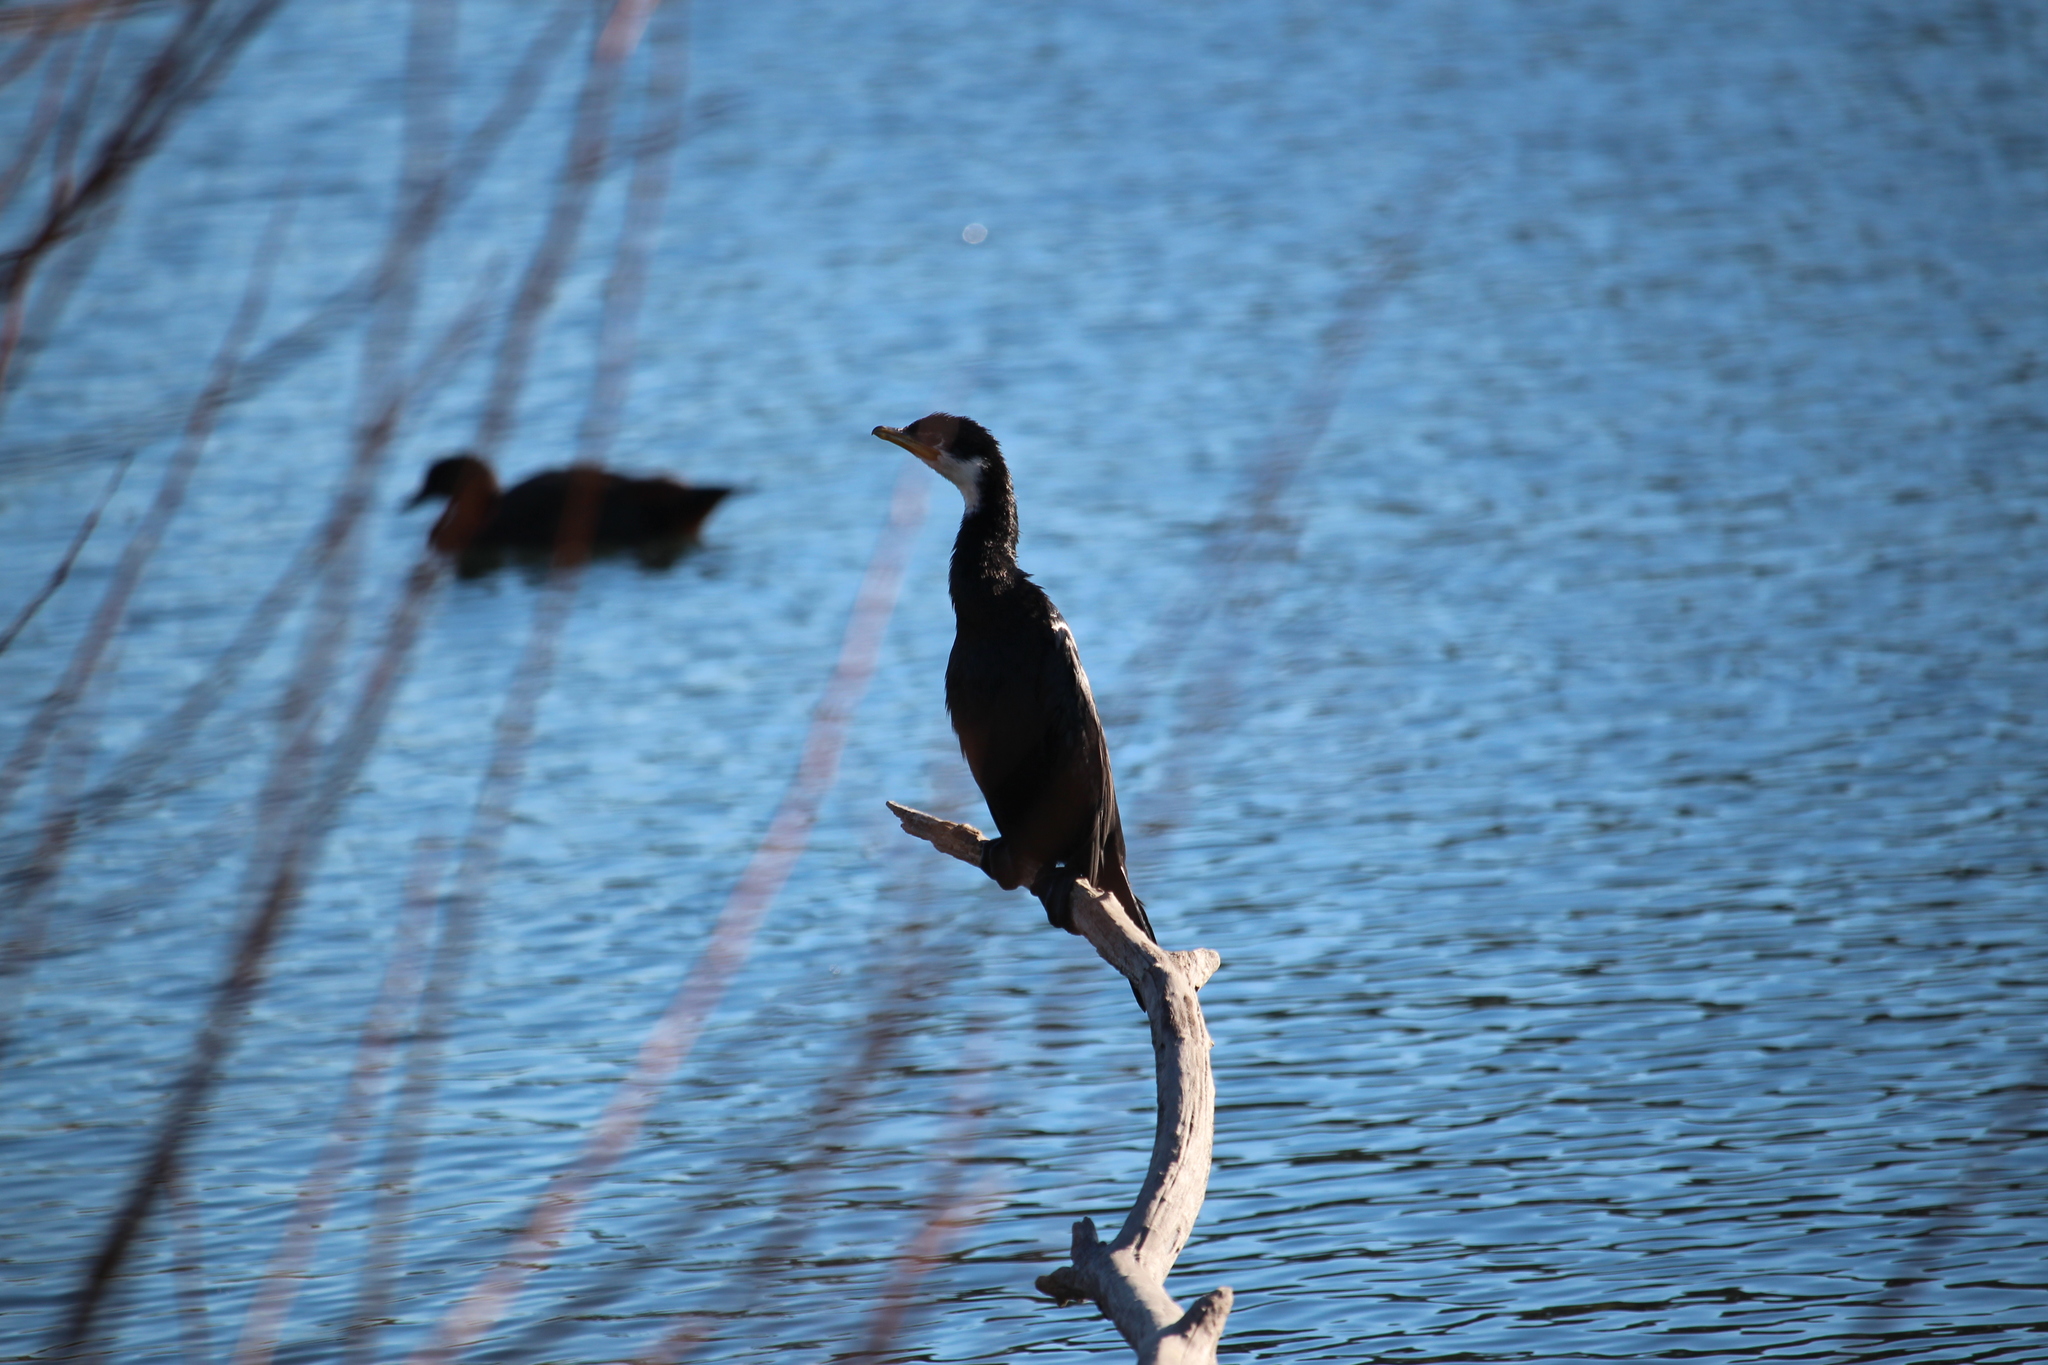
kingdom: Animalia
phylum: Chordata
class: Aves
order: Suliformes
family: Phalacrocoracidae
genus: Microcarbo
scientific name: Microcarbo melanoleucos
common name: Little pied cormorant
